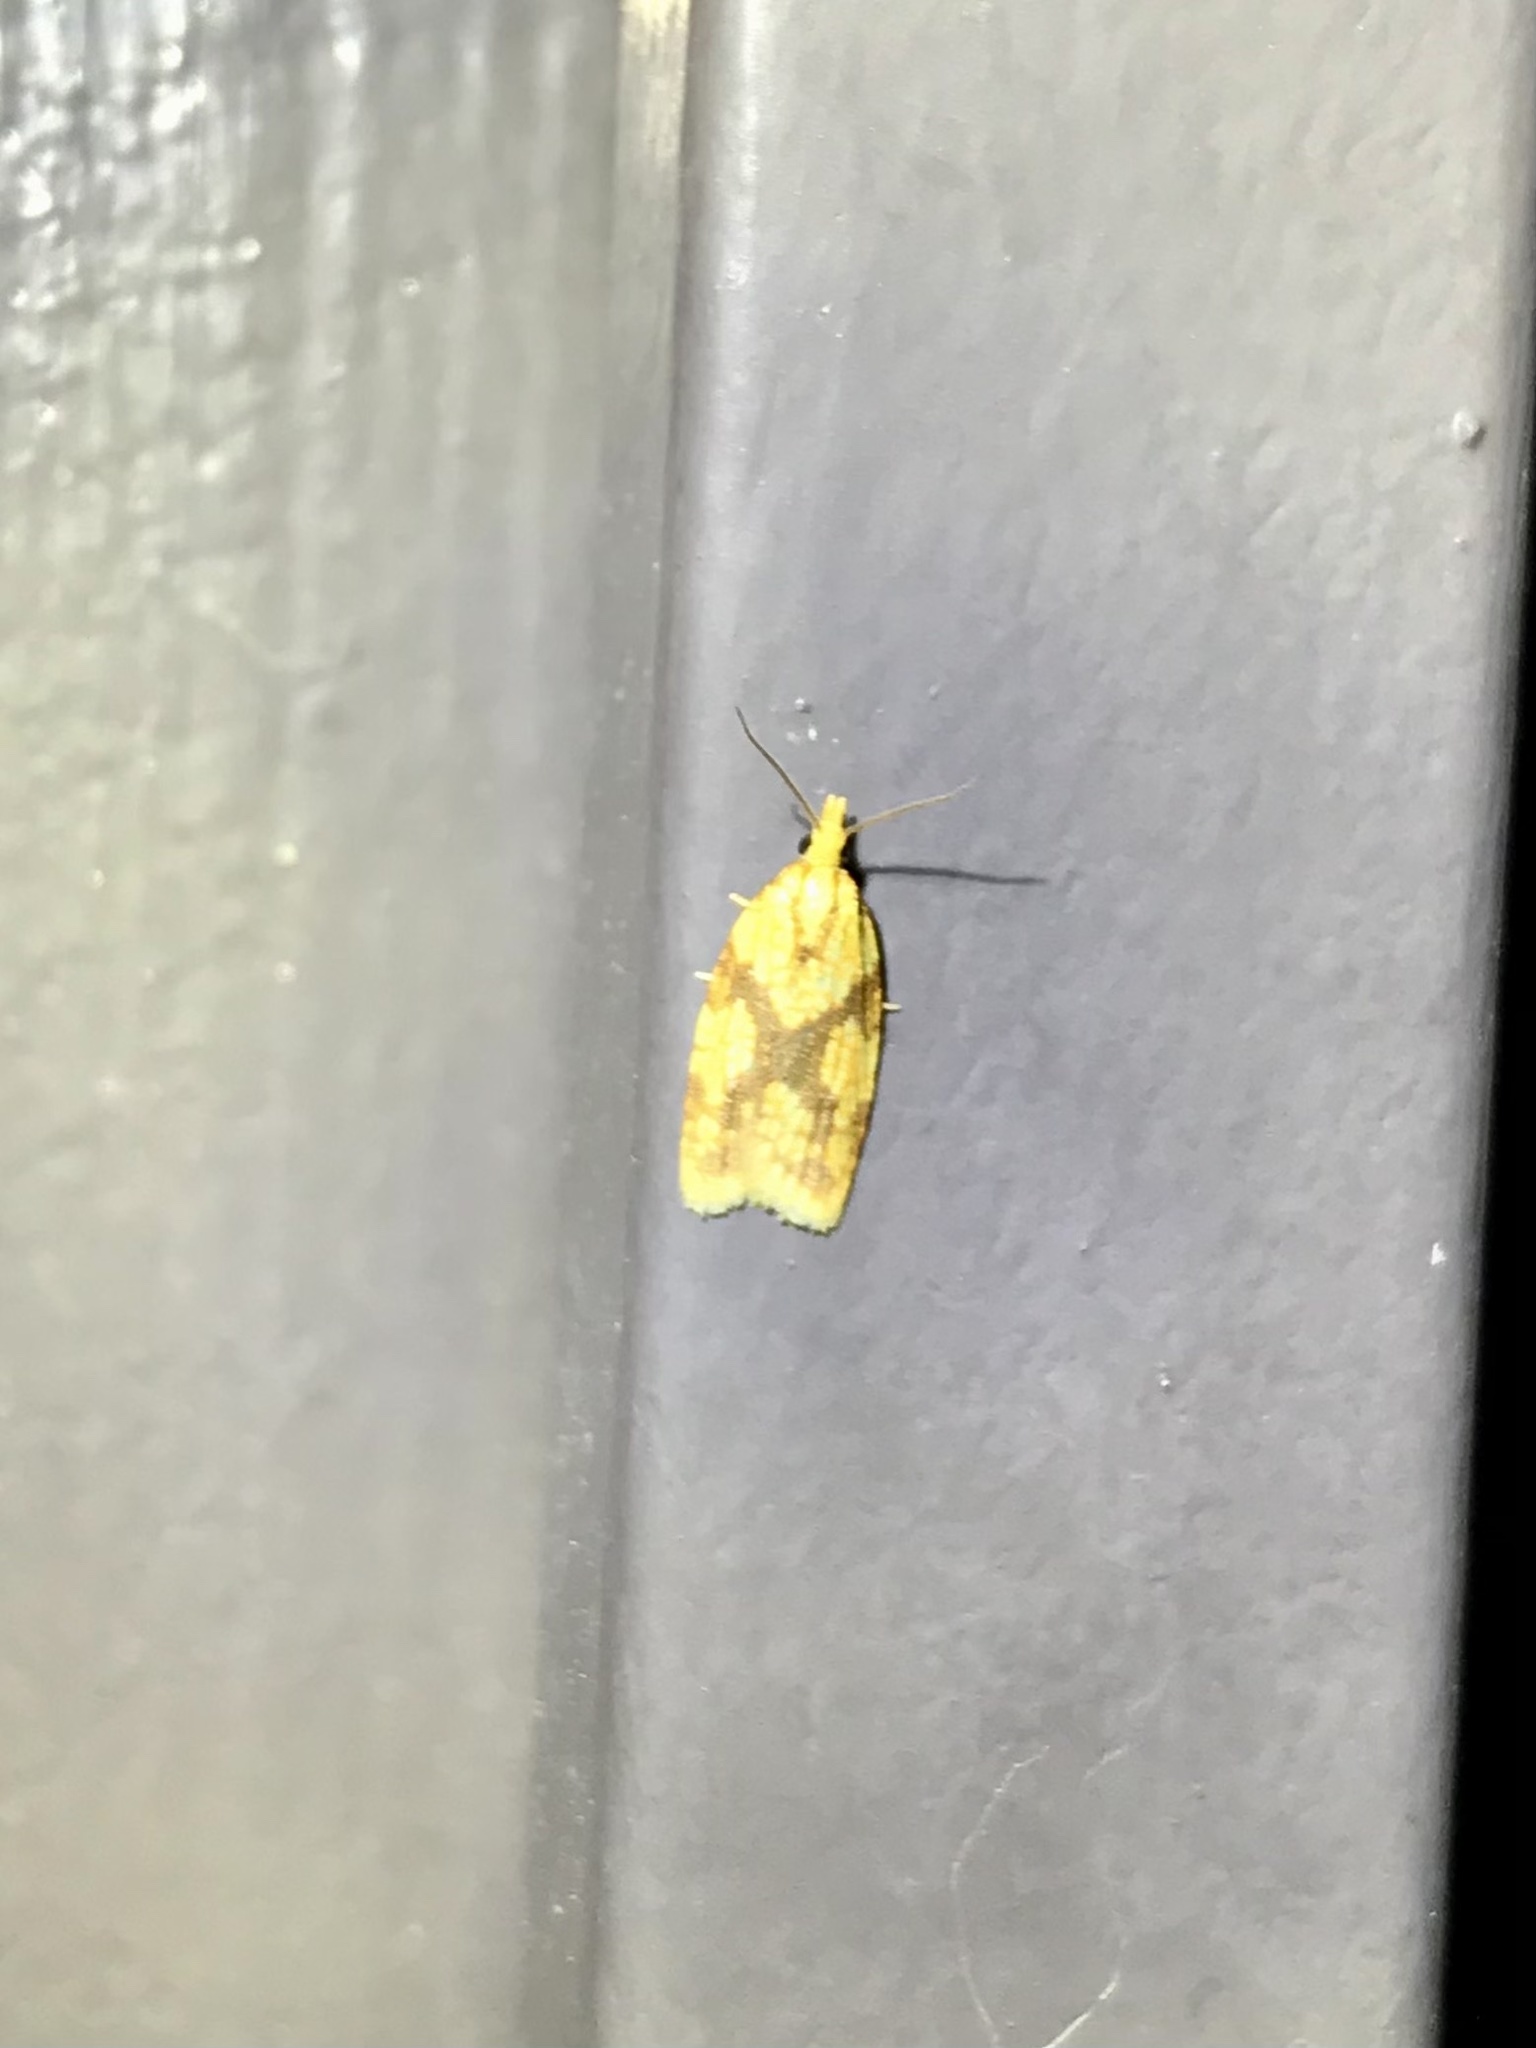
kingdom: Animalia
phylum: Arthropoda
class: Insecta
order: Lepidoptera
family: Tortricidae
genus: Sparganothis
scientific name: Sparganothis sulfureana
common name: Sparganothis fruitworm moth
